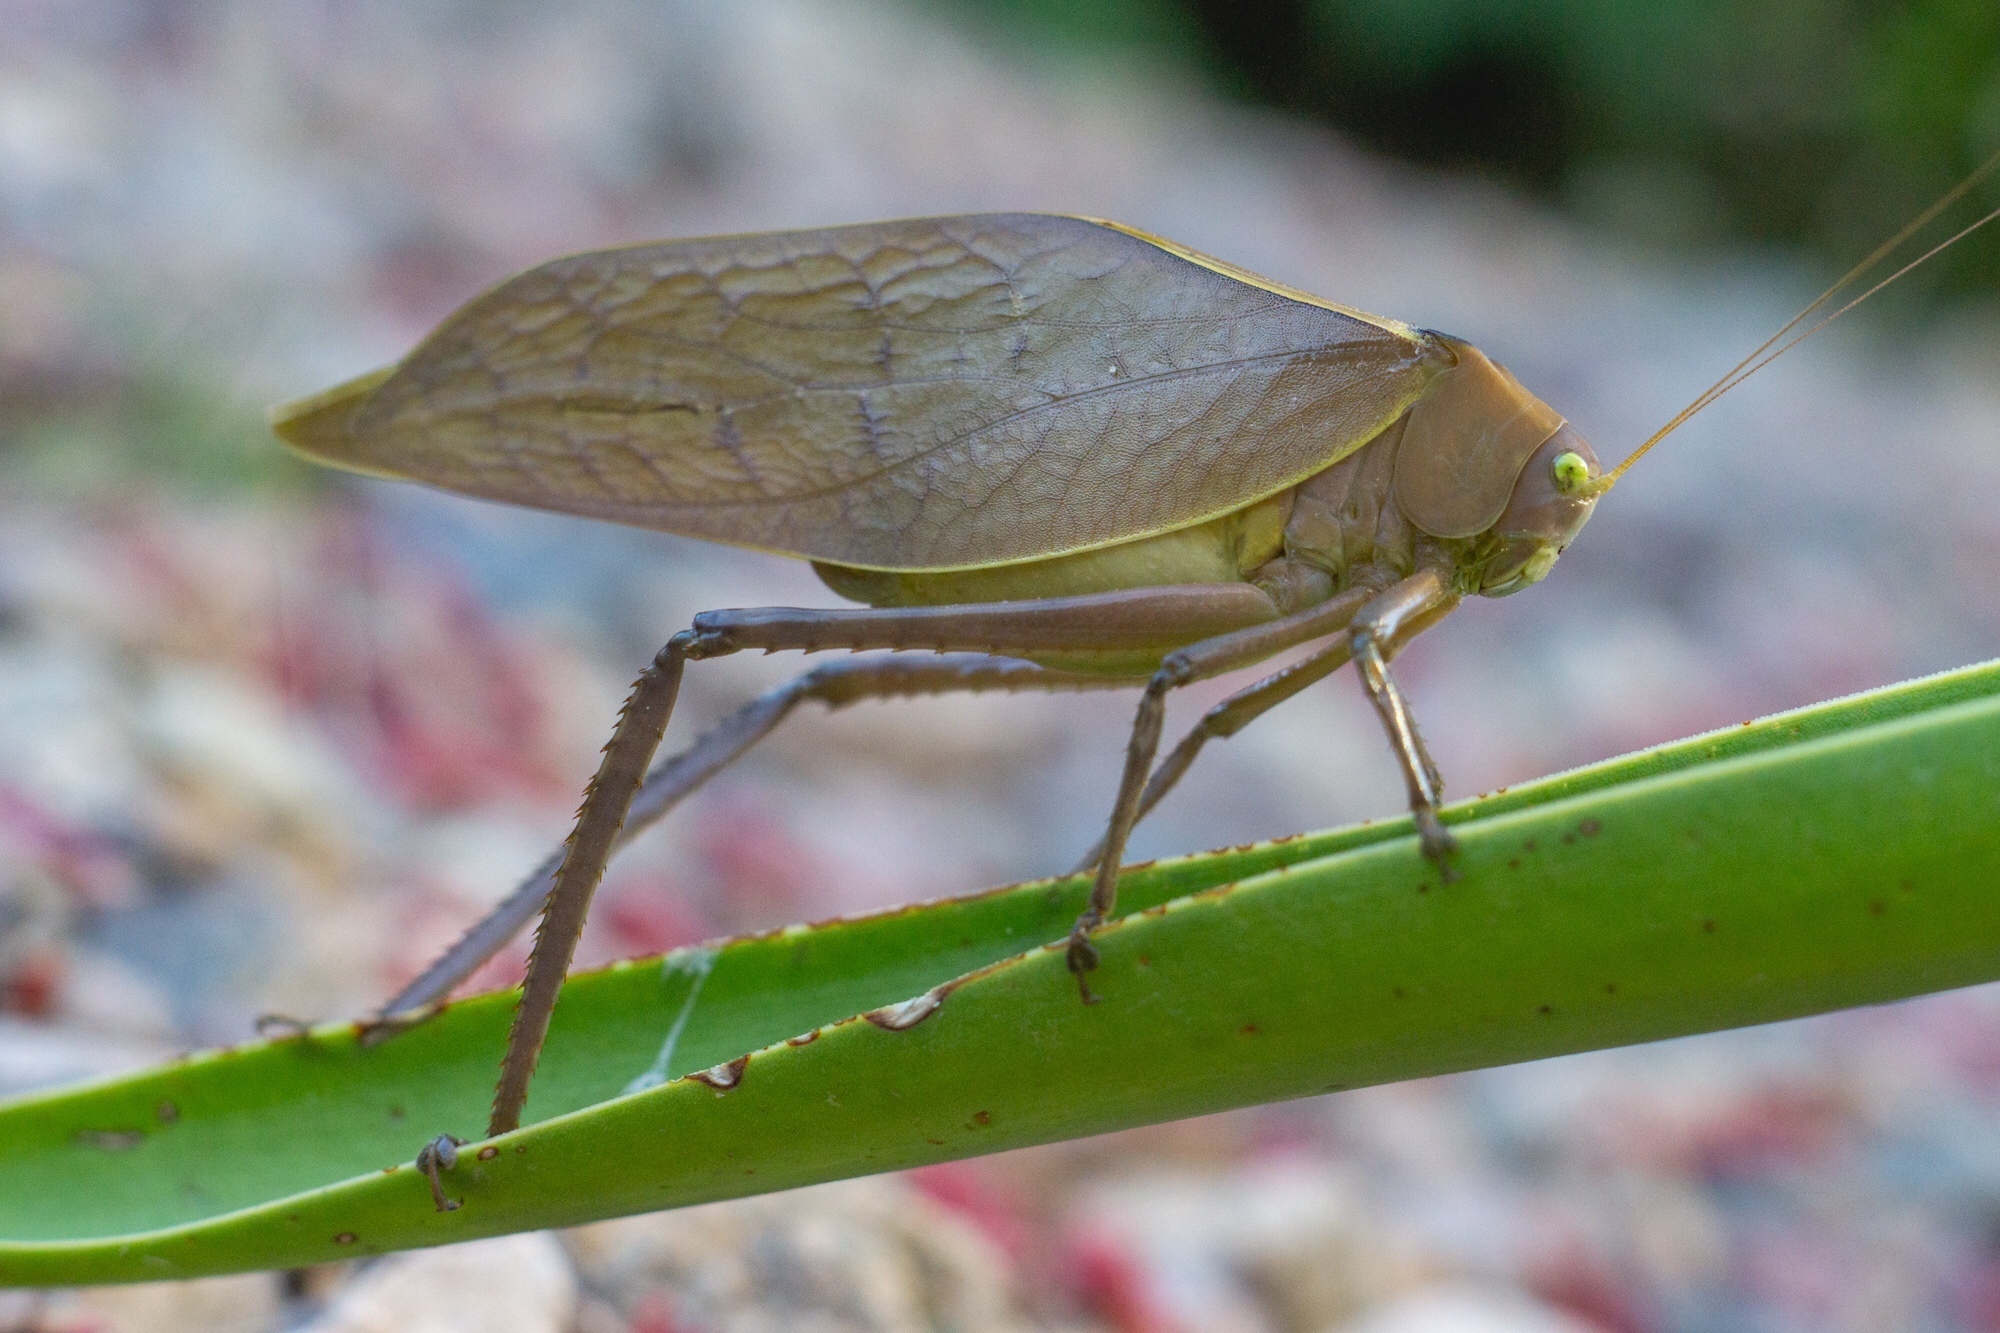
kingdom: Animalia
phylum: Arthropoda
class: Insecta
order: Orthoptera
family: Tettigoniidae
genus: Stilpnochlora
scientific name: Stilpnochlora azteca
